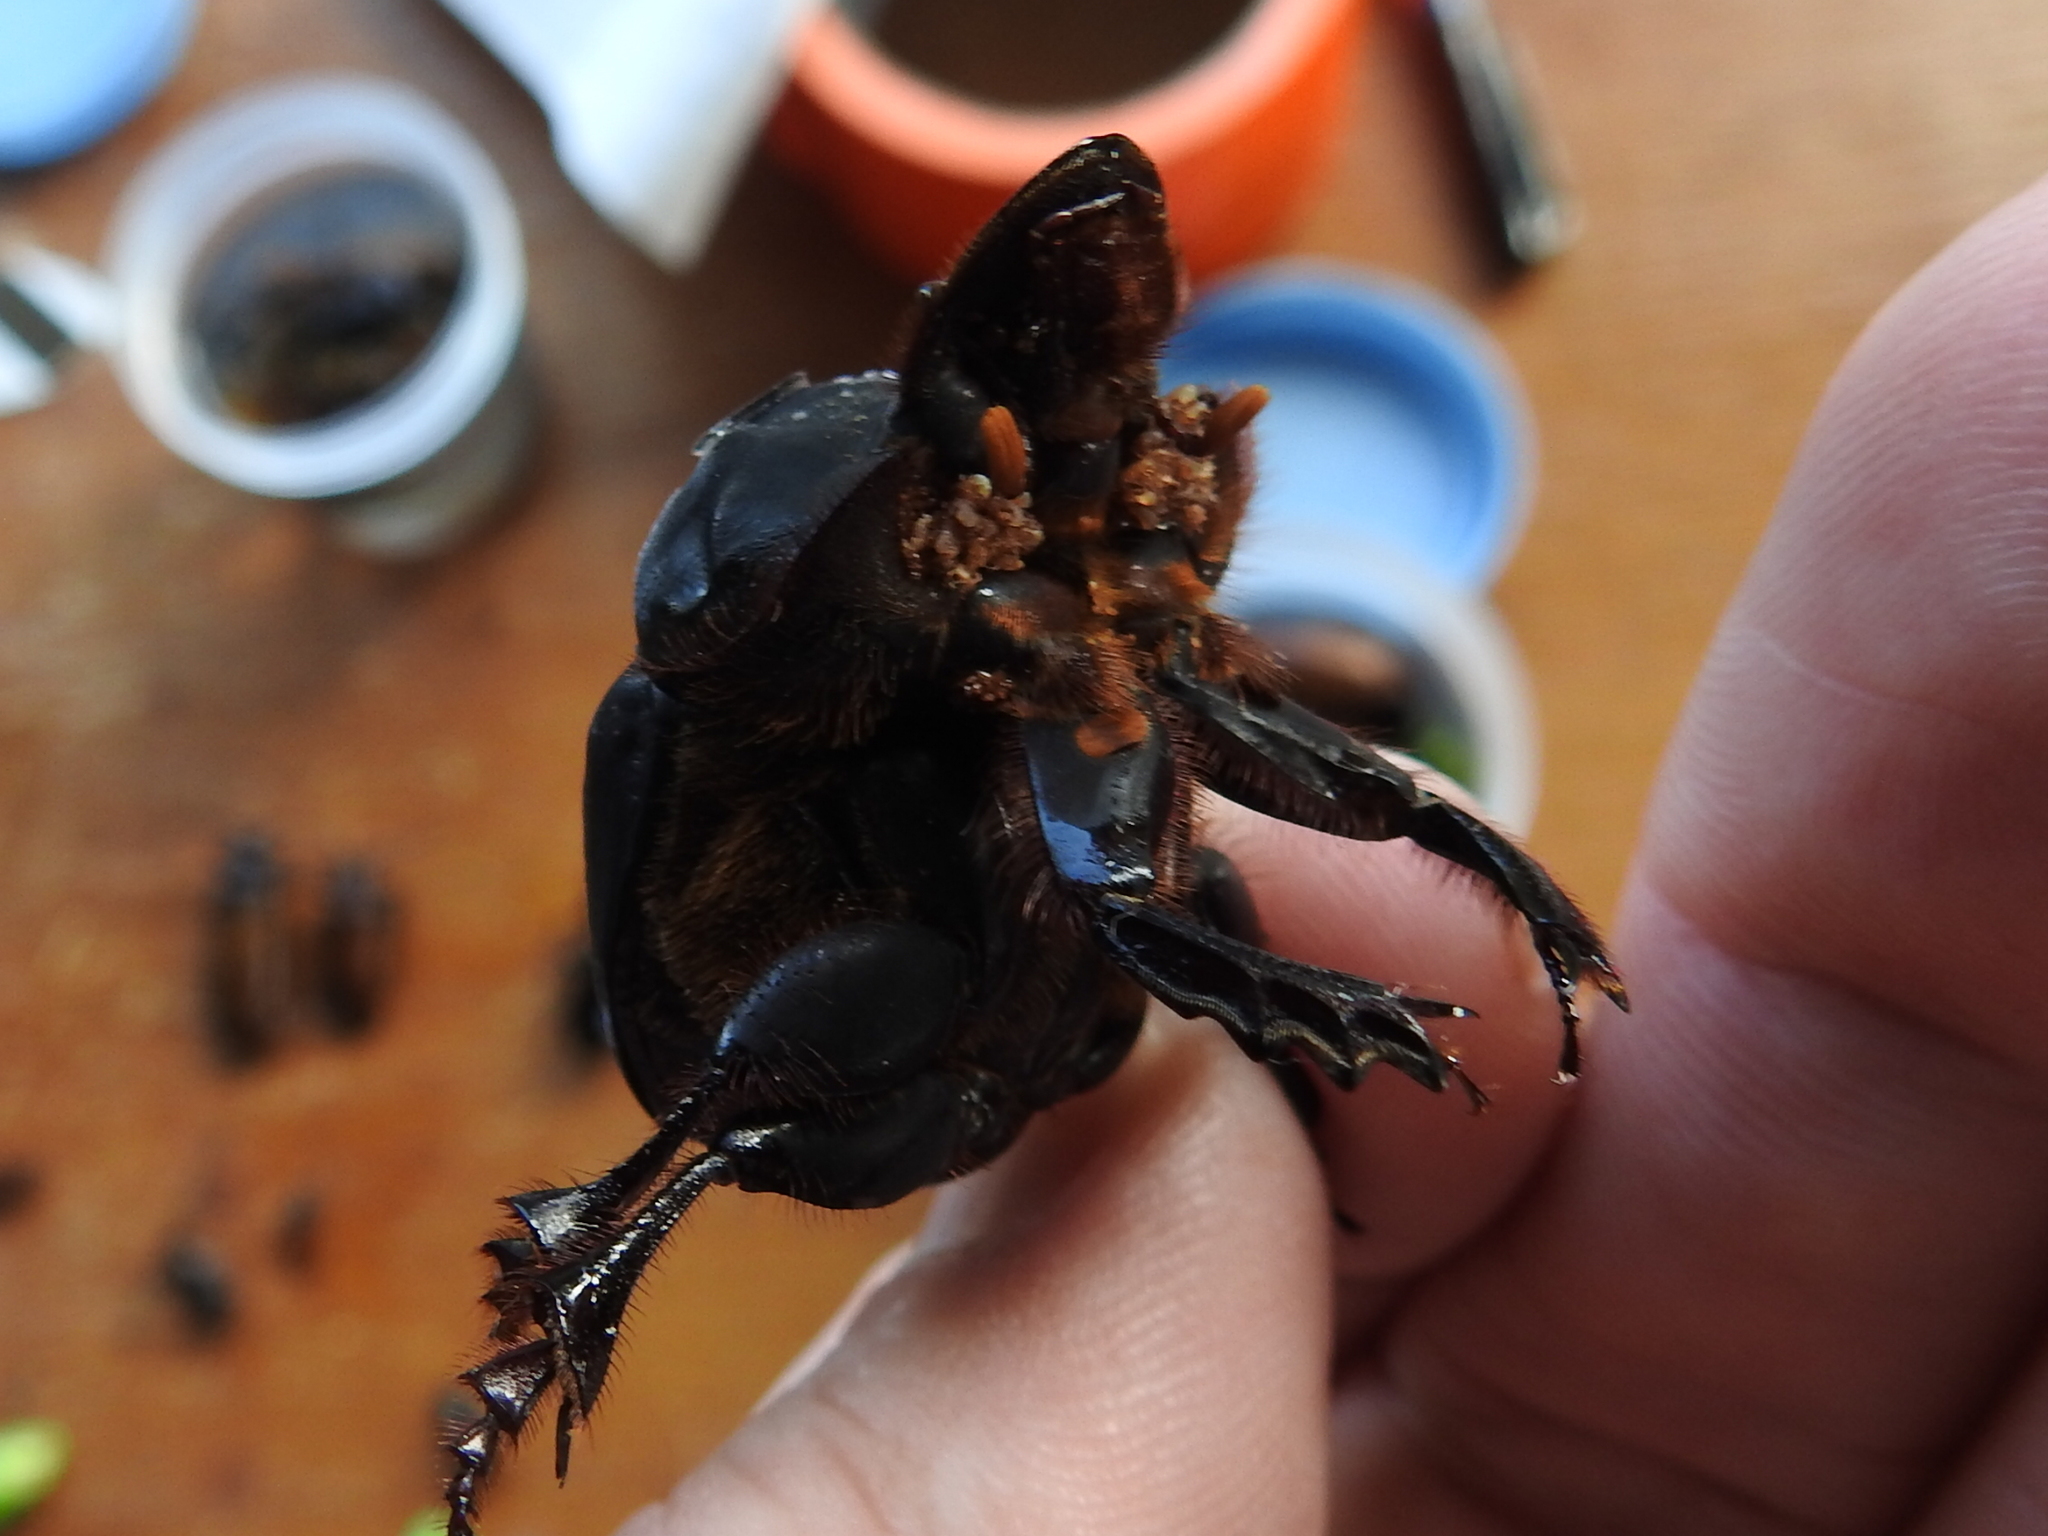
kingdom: Animalia
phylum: Arthropoda
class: Insecta
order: Coleoptera
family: Scarabaeidae
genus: Dichotomius
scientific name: Dichotomius amicitiae
